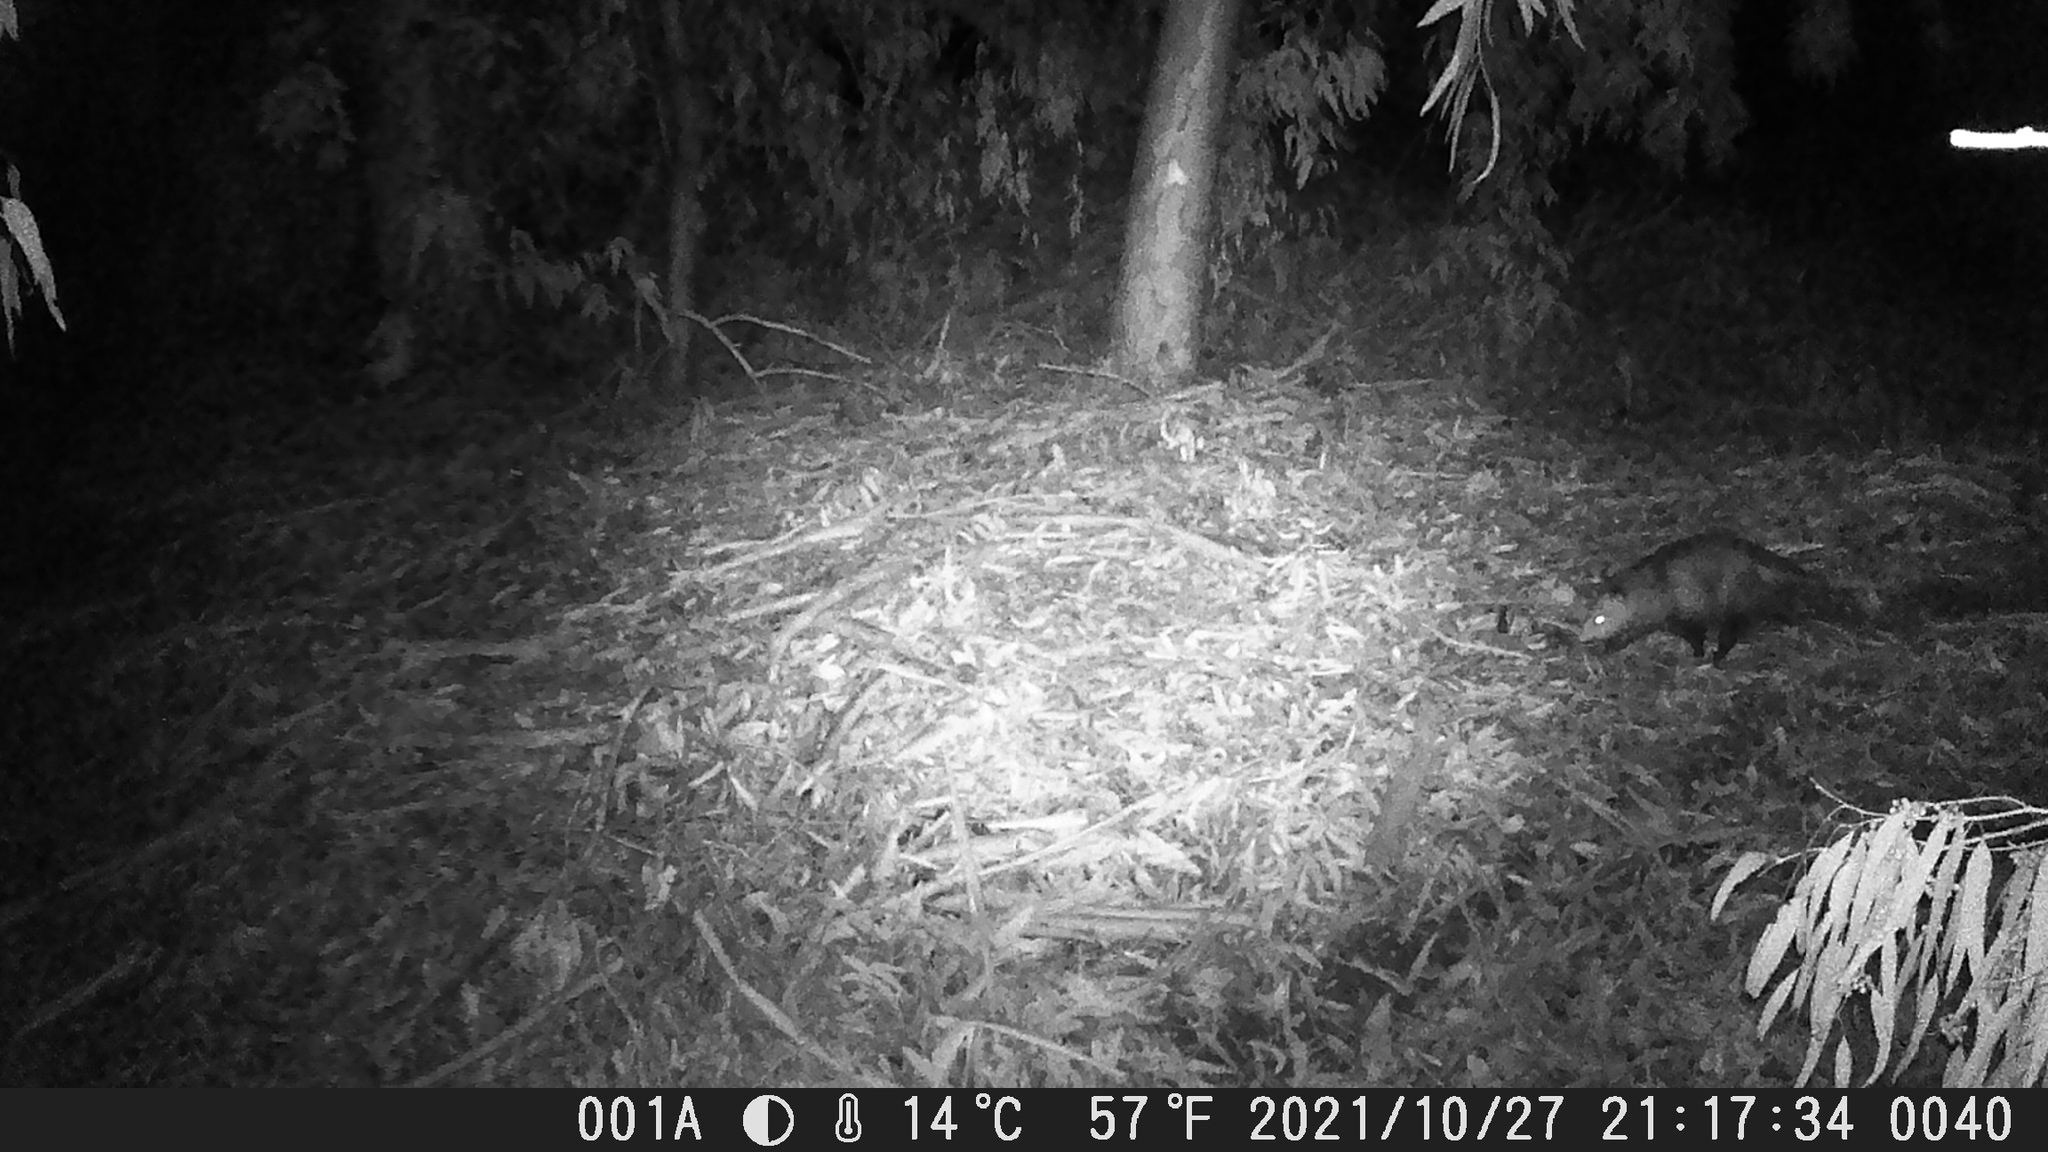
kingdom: Animalia
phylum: Chordata
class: Mammalia
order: Didelphimorphia
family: Didelphidae
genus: Didelphis
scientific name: Didelphis virginiana
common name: Virginia opossum
